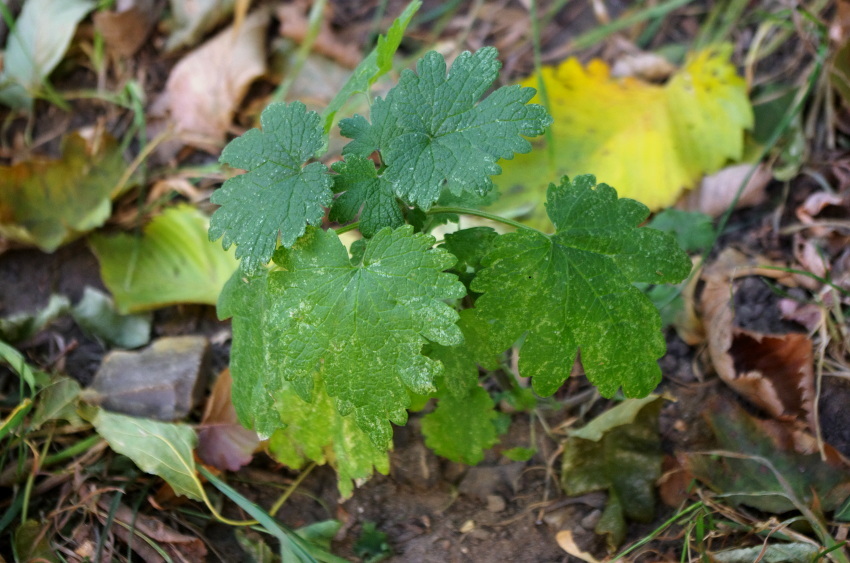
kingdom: Plantae
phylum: Tracheophyta
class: Magnoliopsida
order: Lamiales
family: Lamiaceae
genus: Leonurus
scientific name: Leonurus quinquelobatus
